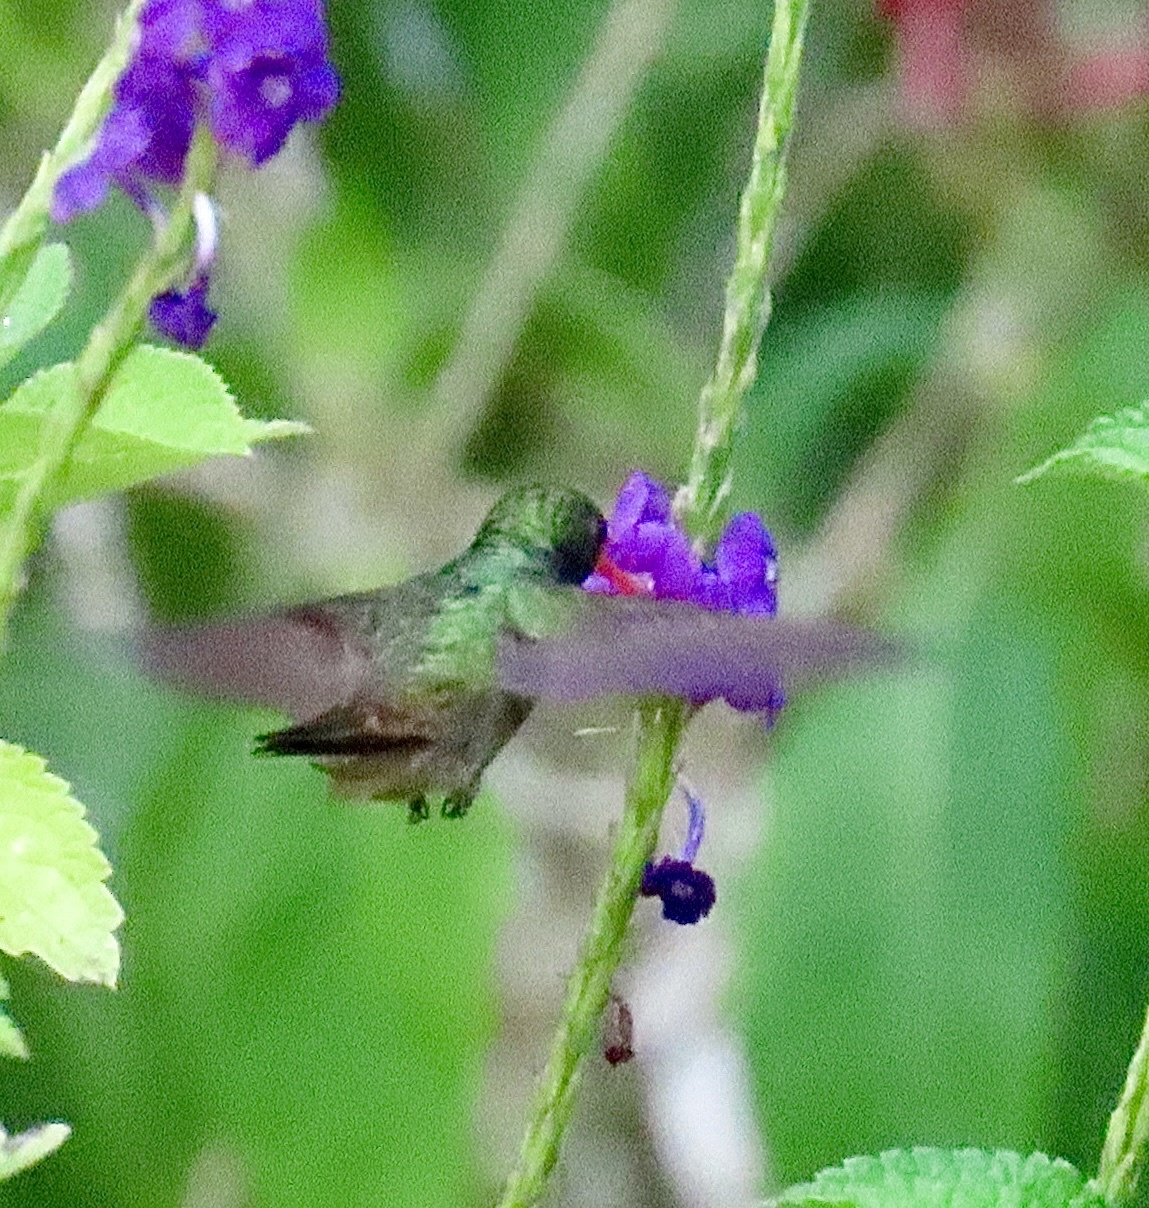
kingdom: Animalia
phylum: Chordata
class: Aves
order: Apodiformes
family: Trochilidae
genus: Chlorestes
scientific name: Chlorestes eliciae
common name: Blue-throated sapphire
